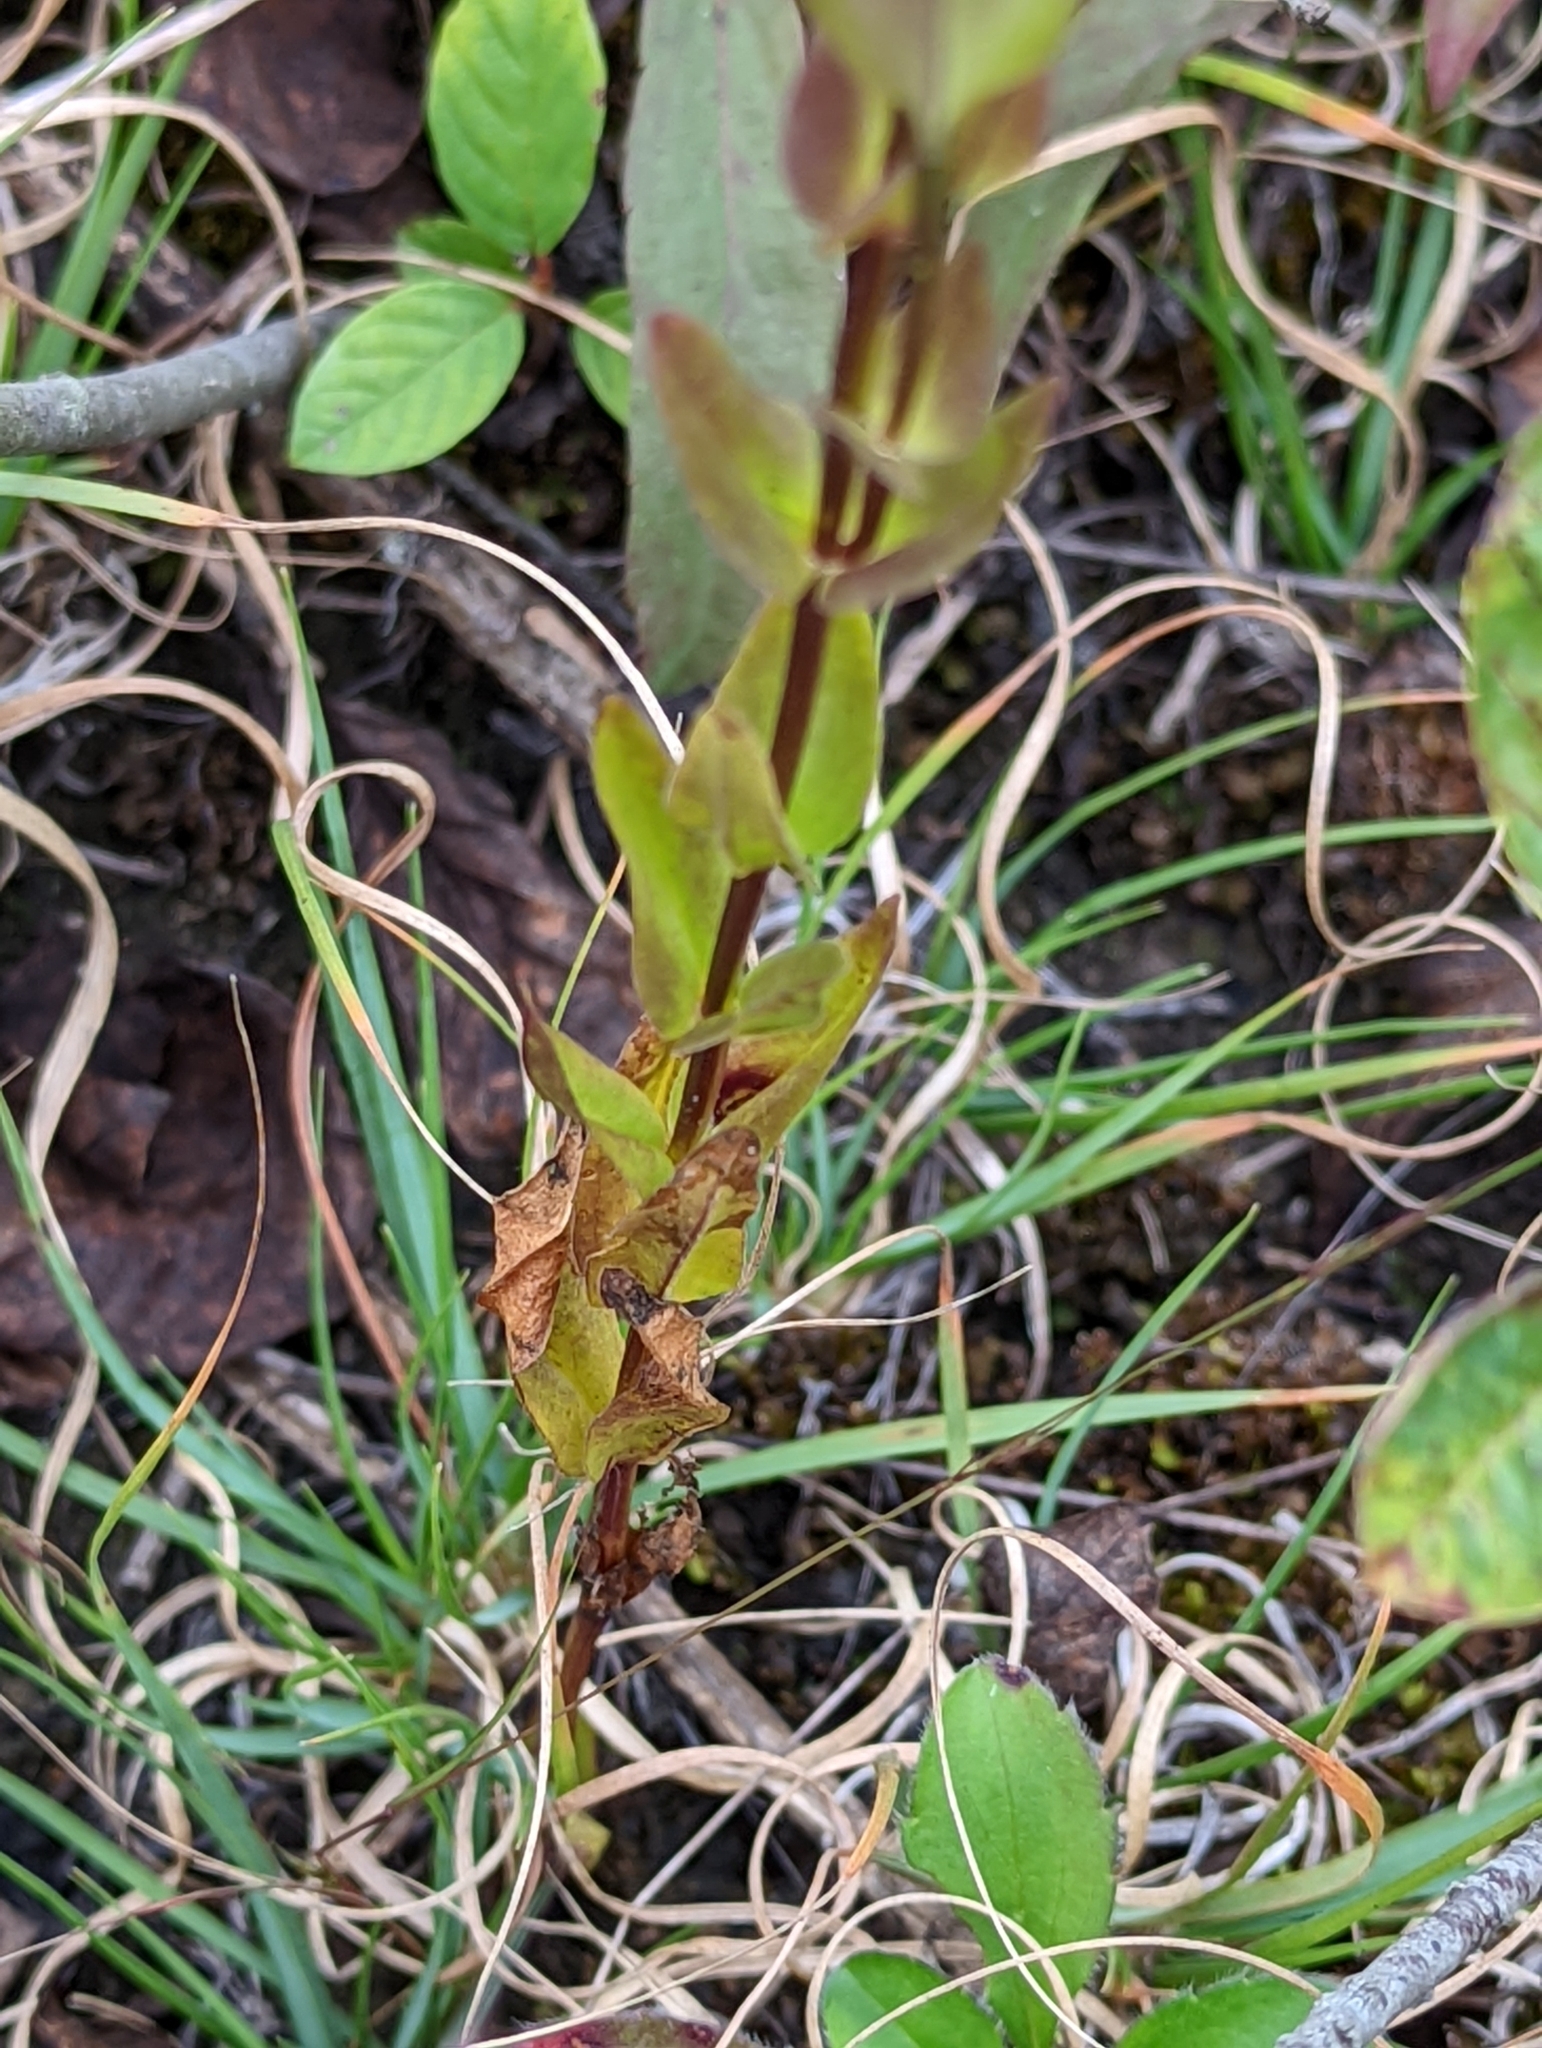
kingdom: Plantae
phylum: Tracheophyta
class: Magnoliopsida
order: Gentianales
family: Gentianaceae
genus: Gentianopsis
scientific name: Gentianopsis crinita
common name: Fringed-gentian
